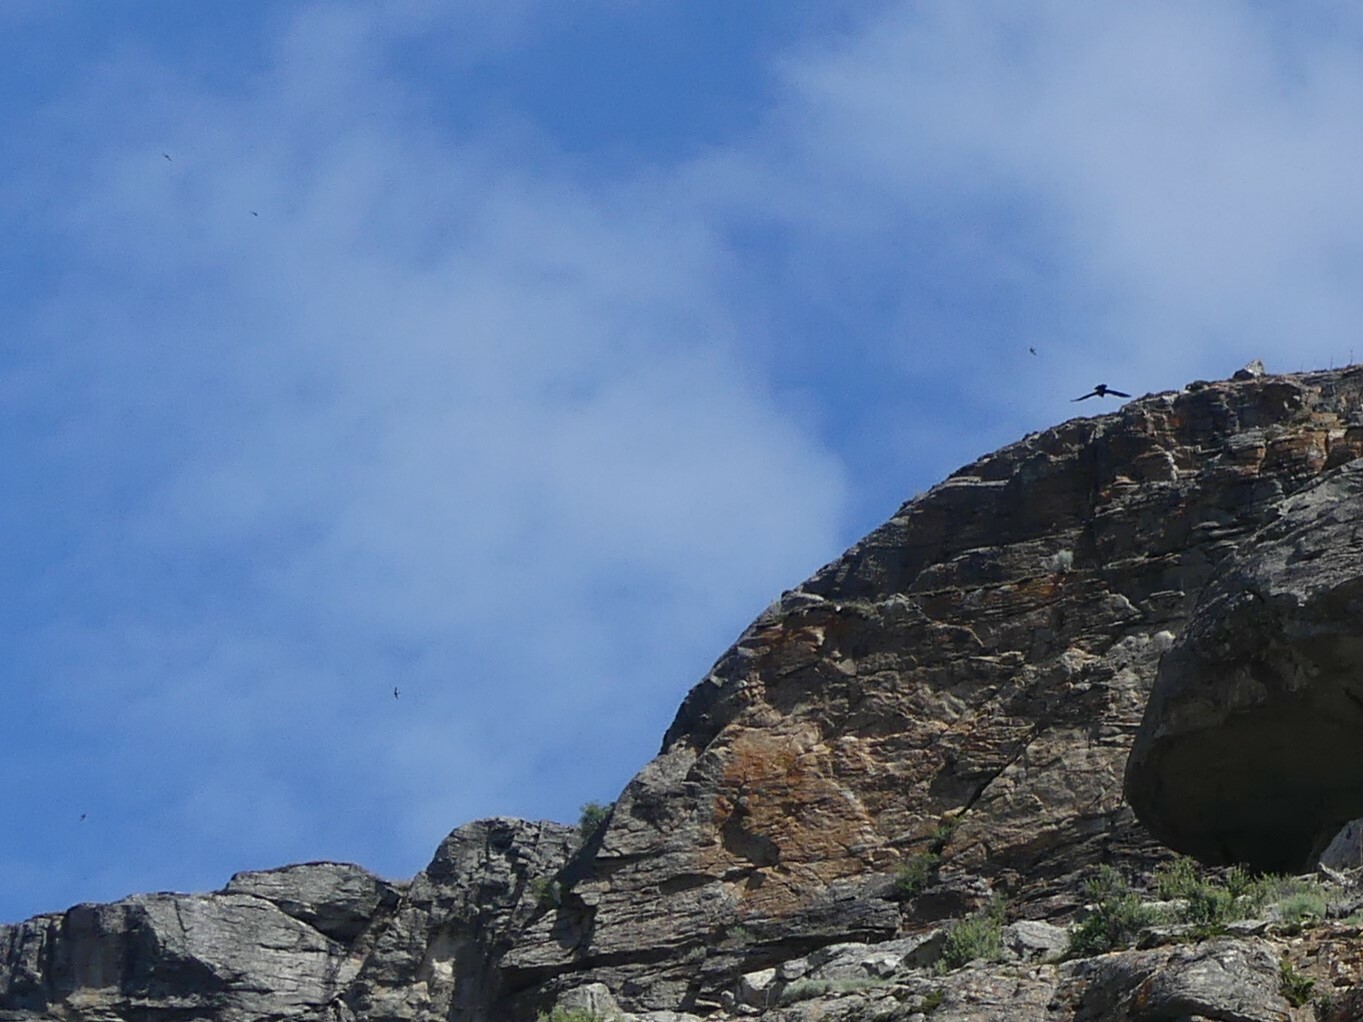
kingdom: Animalia
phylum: Chordata
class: Aves
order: Apodiformes
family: Apodidae
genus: Aeronautes
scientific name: Aeronautes saxatalis
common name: White-throated swift
